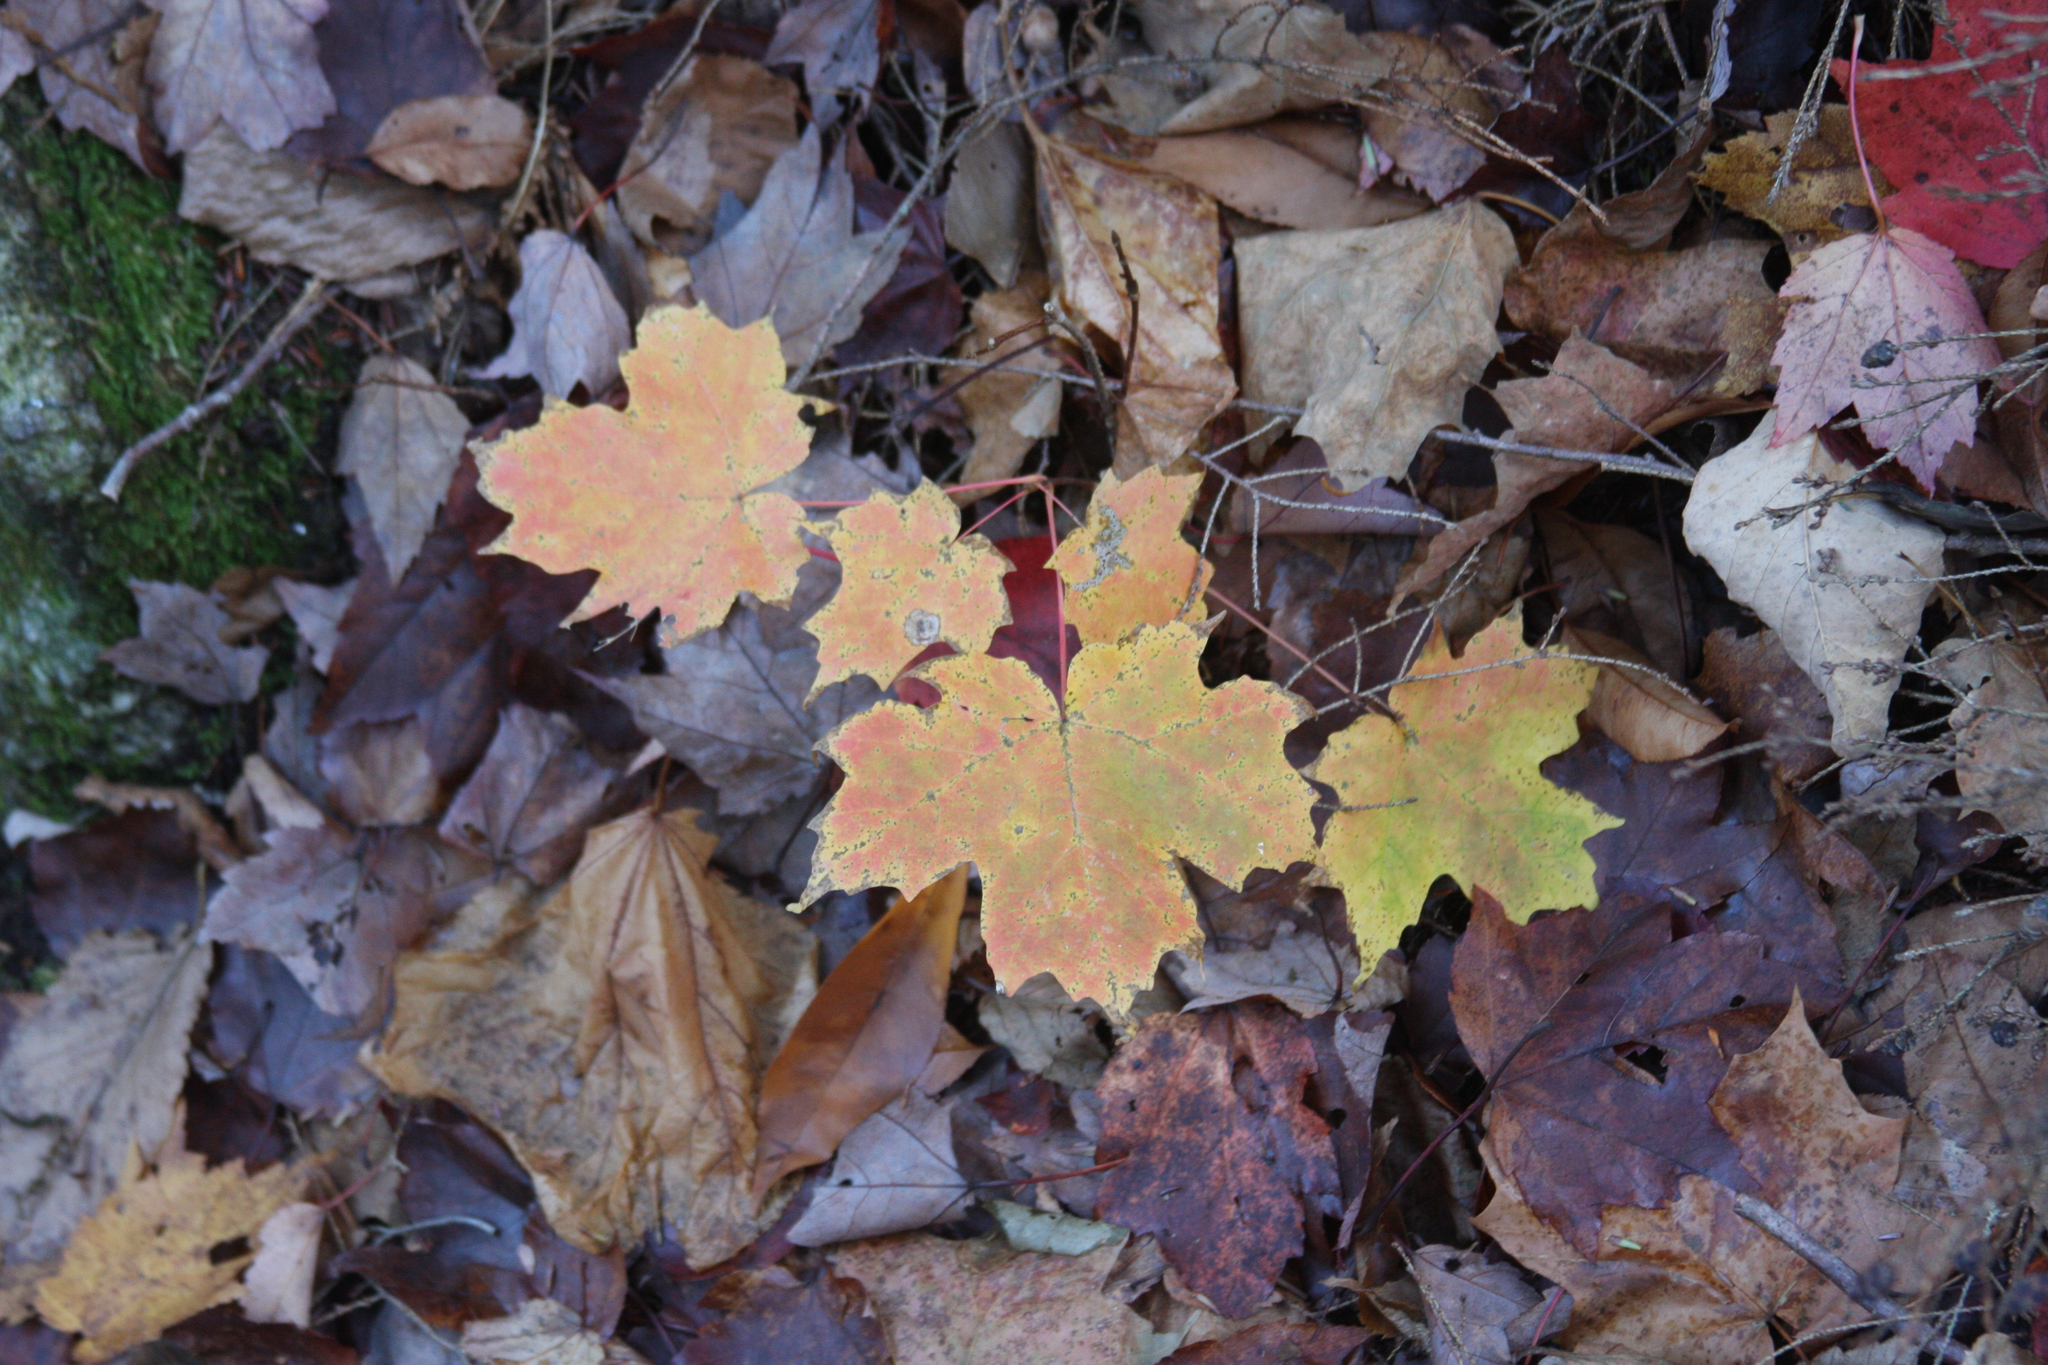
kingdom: Plantae
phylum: Tracheophyta
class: Magnoliopsida
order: Sapindales
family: Sapindaceae
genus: Acer
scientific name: Acer saccharum
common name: Sugar maple
